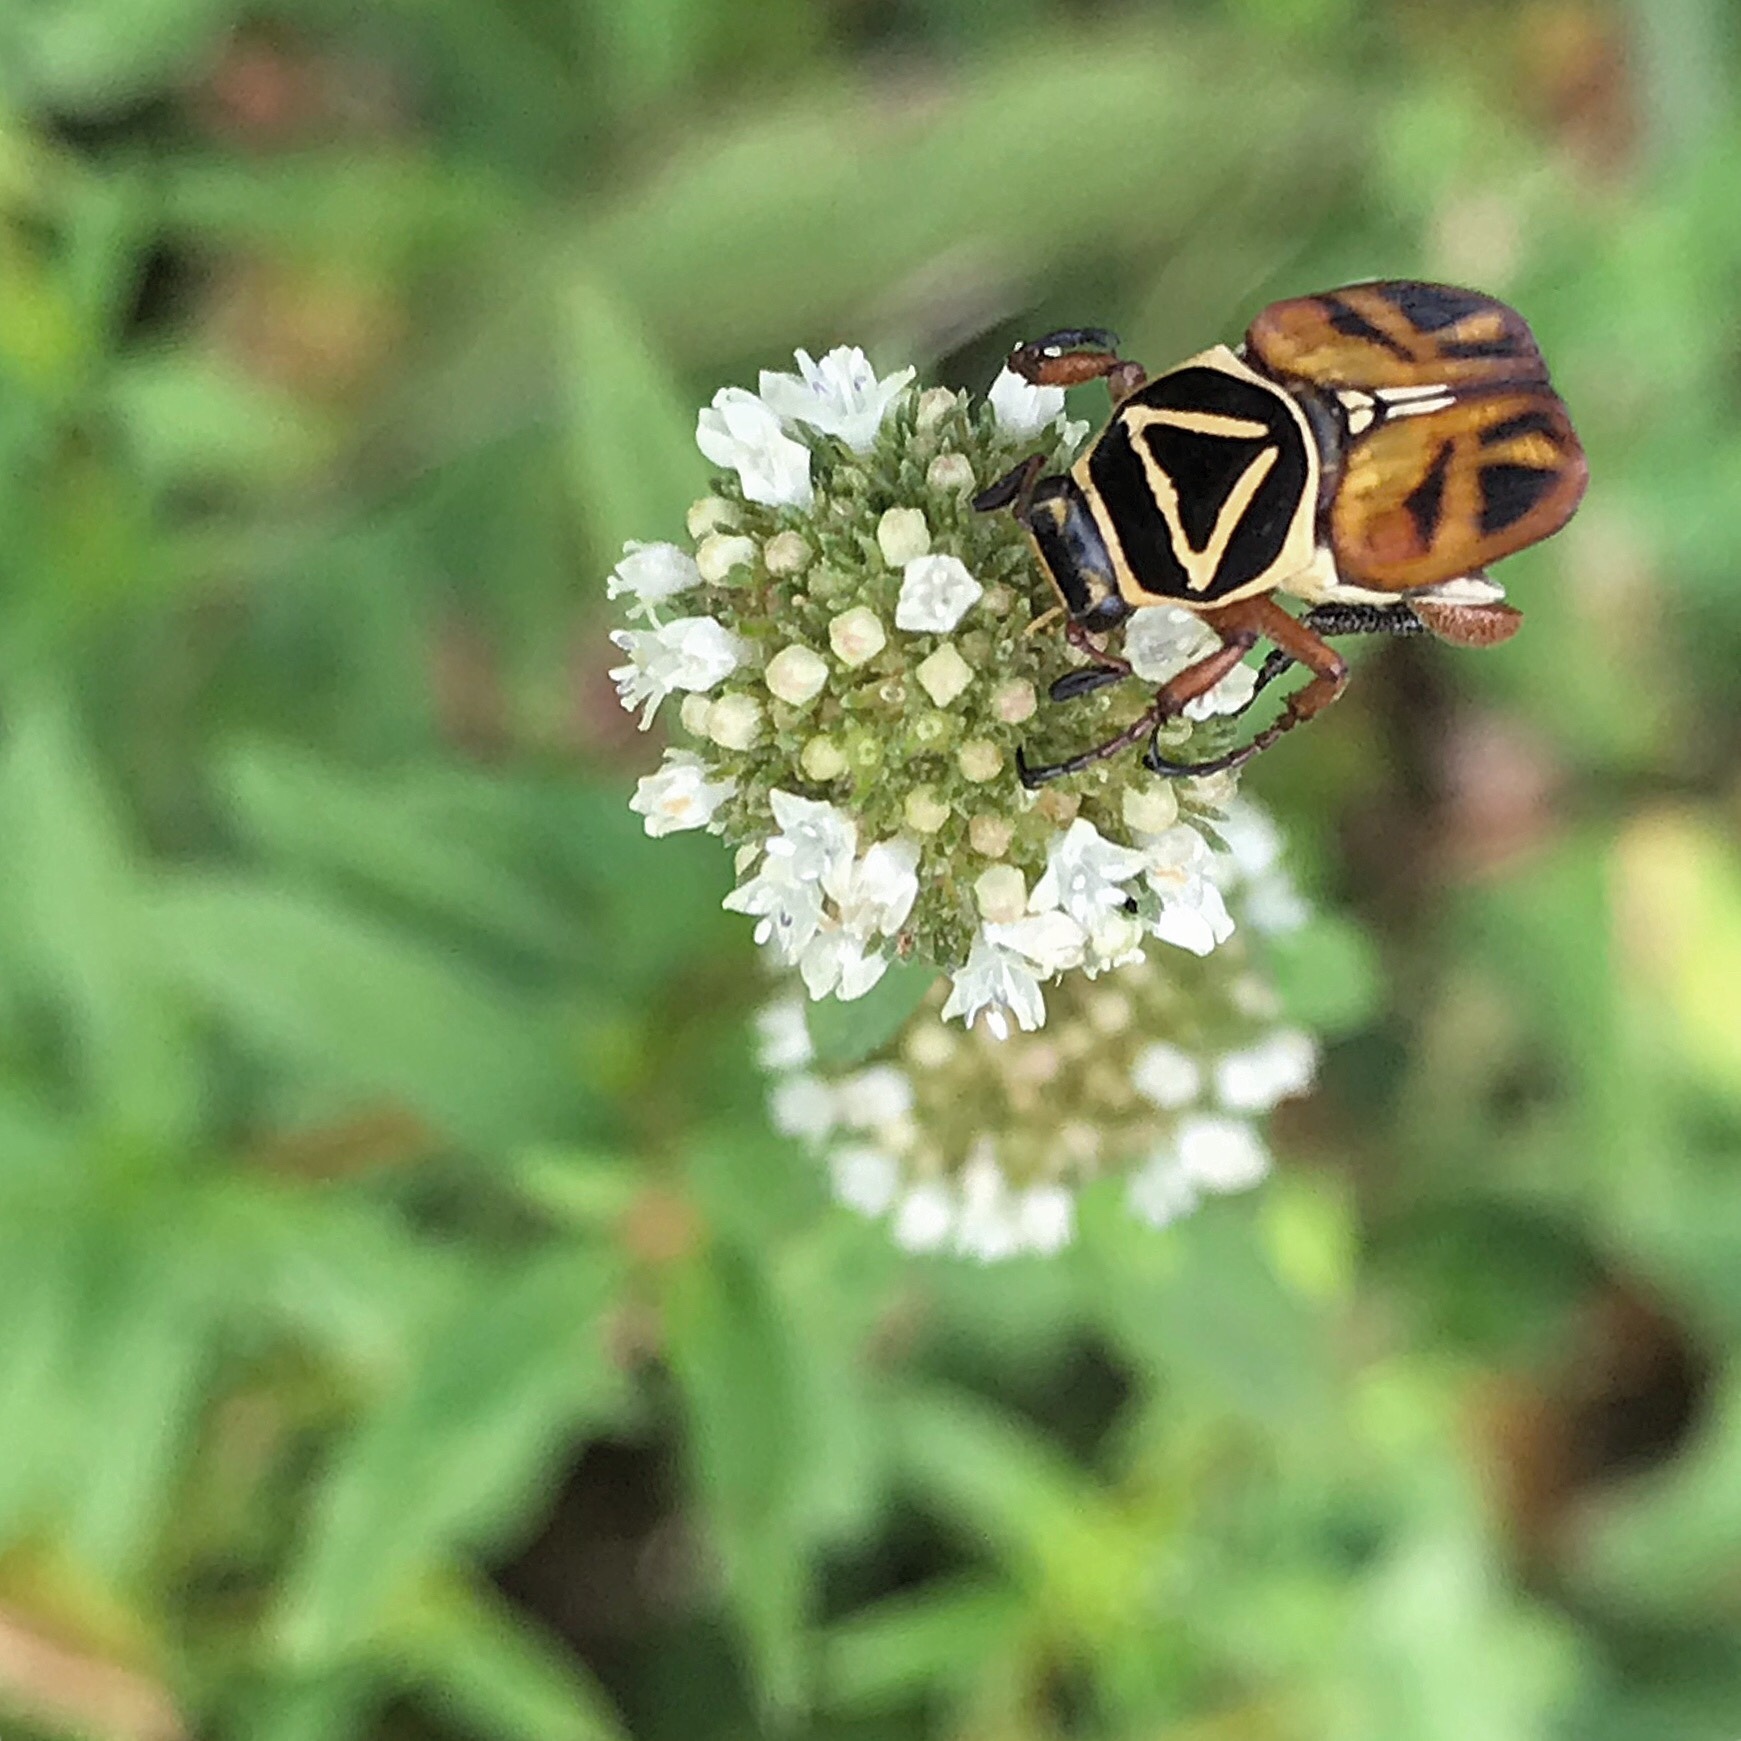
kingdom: Animalia
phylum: Arthropoda
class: Insecta
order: Coleoptera
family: Scarabaeidae
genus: Trigonopeltastes
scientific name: Trigonopeltastes delta
